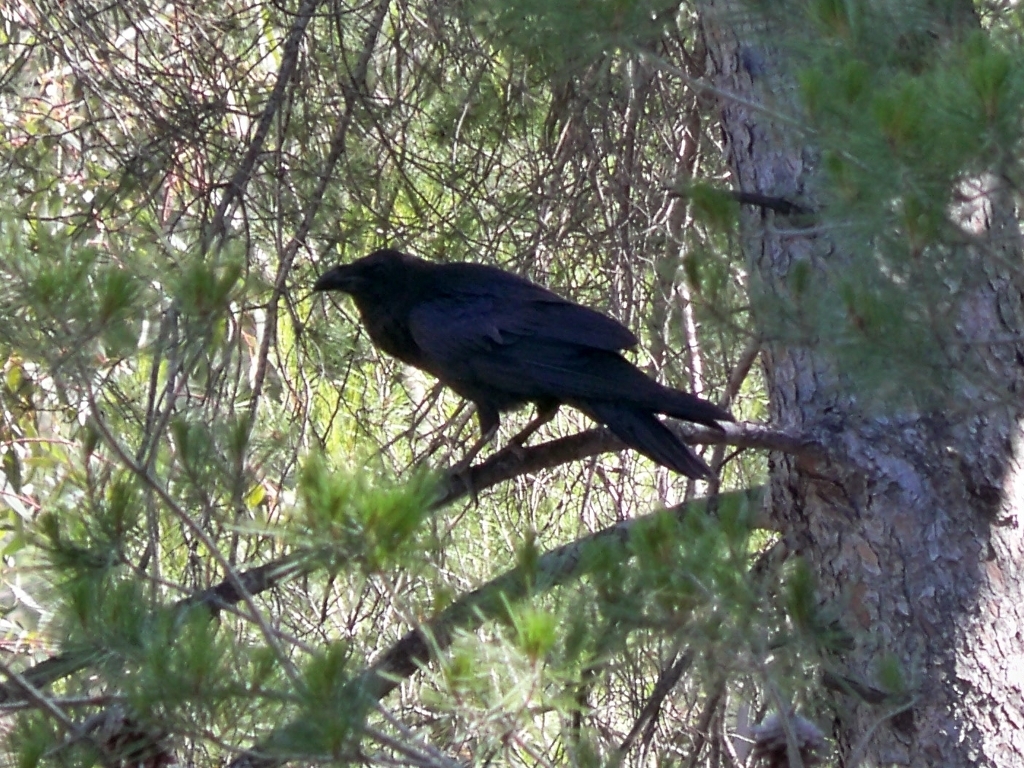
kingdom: Animalia
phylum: Chordata
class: Aves
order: Passeriformes
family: Corvidae
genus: Corvus
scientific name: Corvus corax
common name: Common raven
